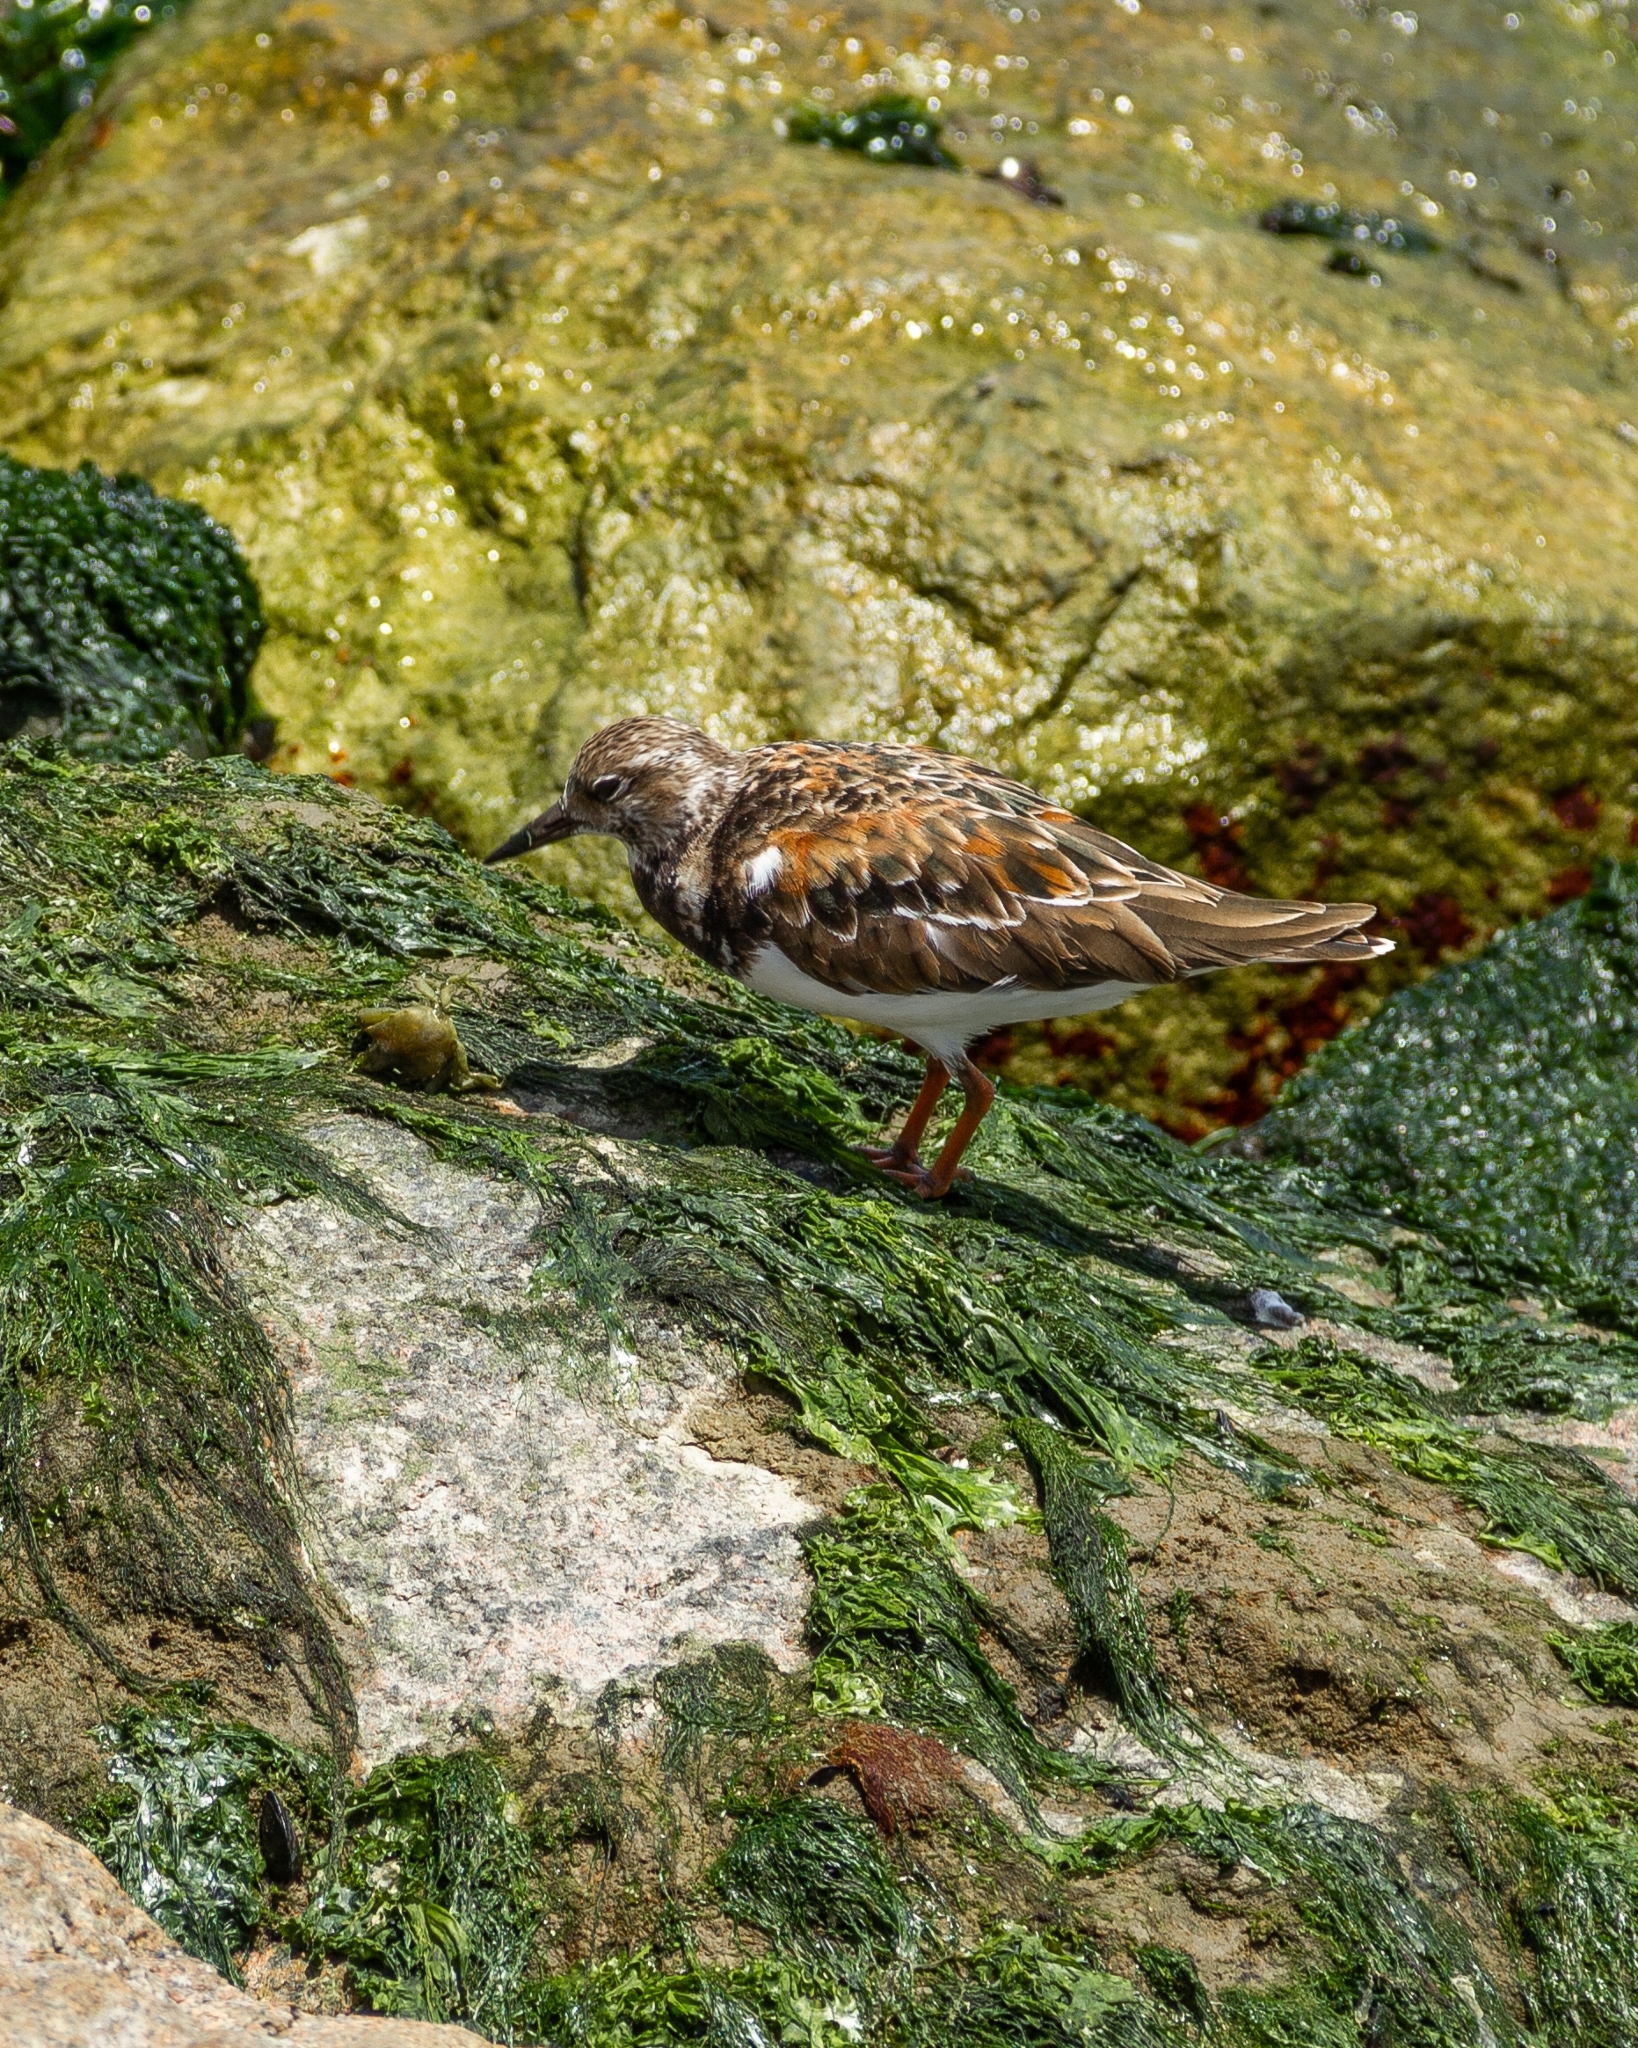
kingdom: Animalia
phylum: Chordata
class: Aves
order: Charadriiformes
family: Scolopacidae
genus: Arenaria
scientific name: Arenaria interpres
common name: Ruddy turnstone
